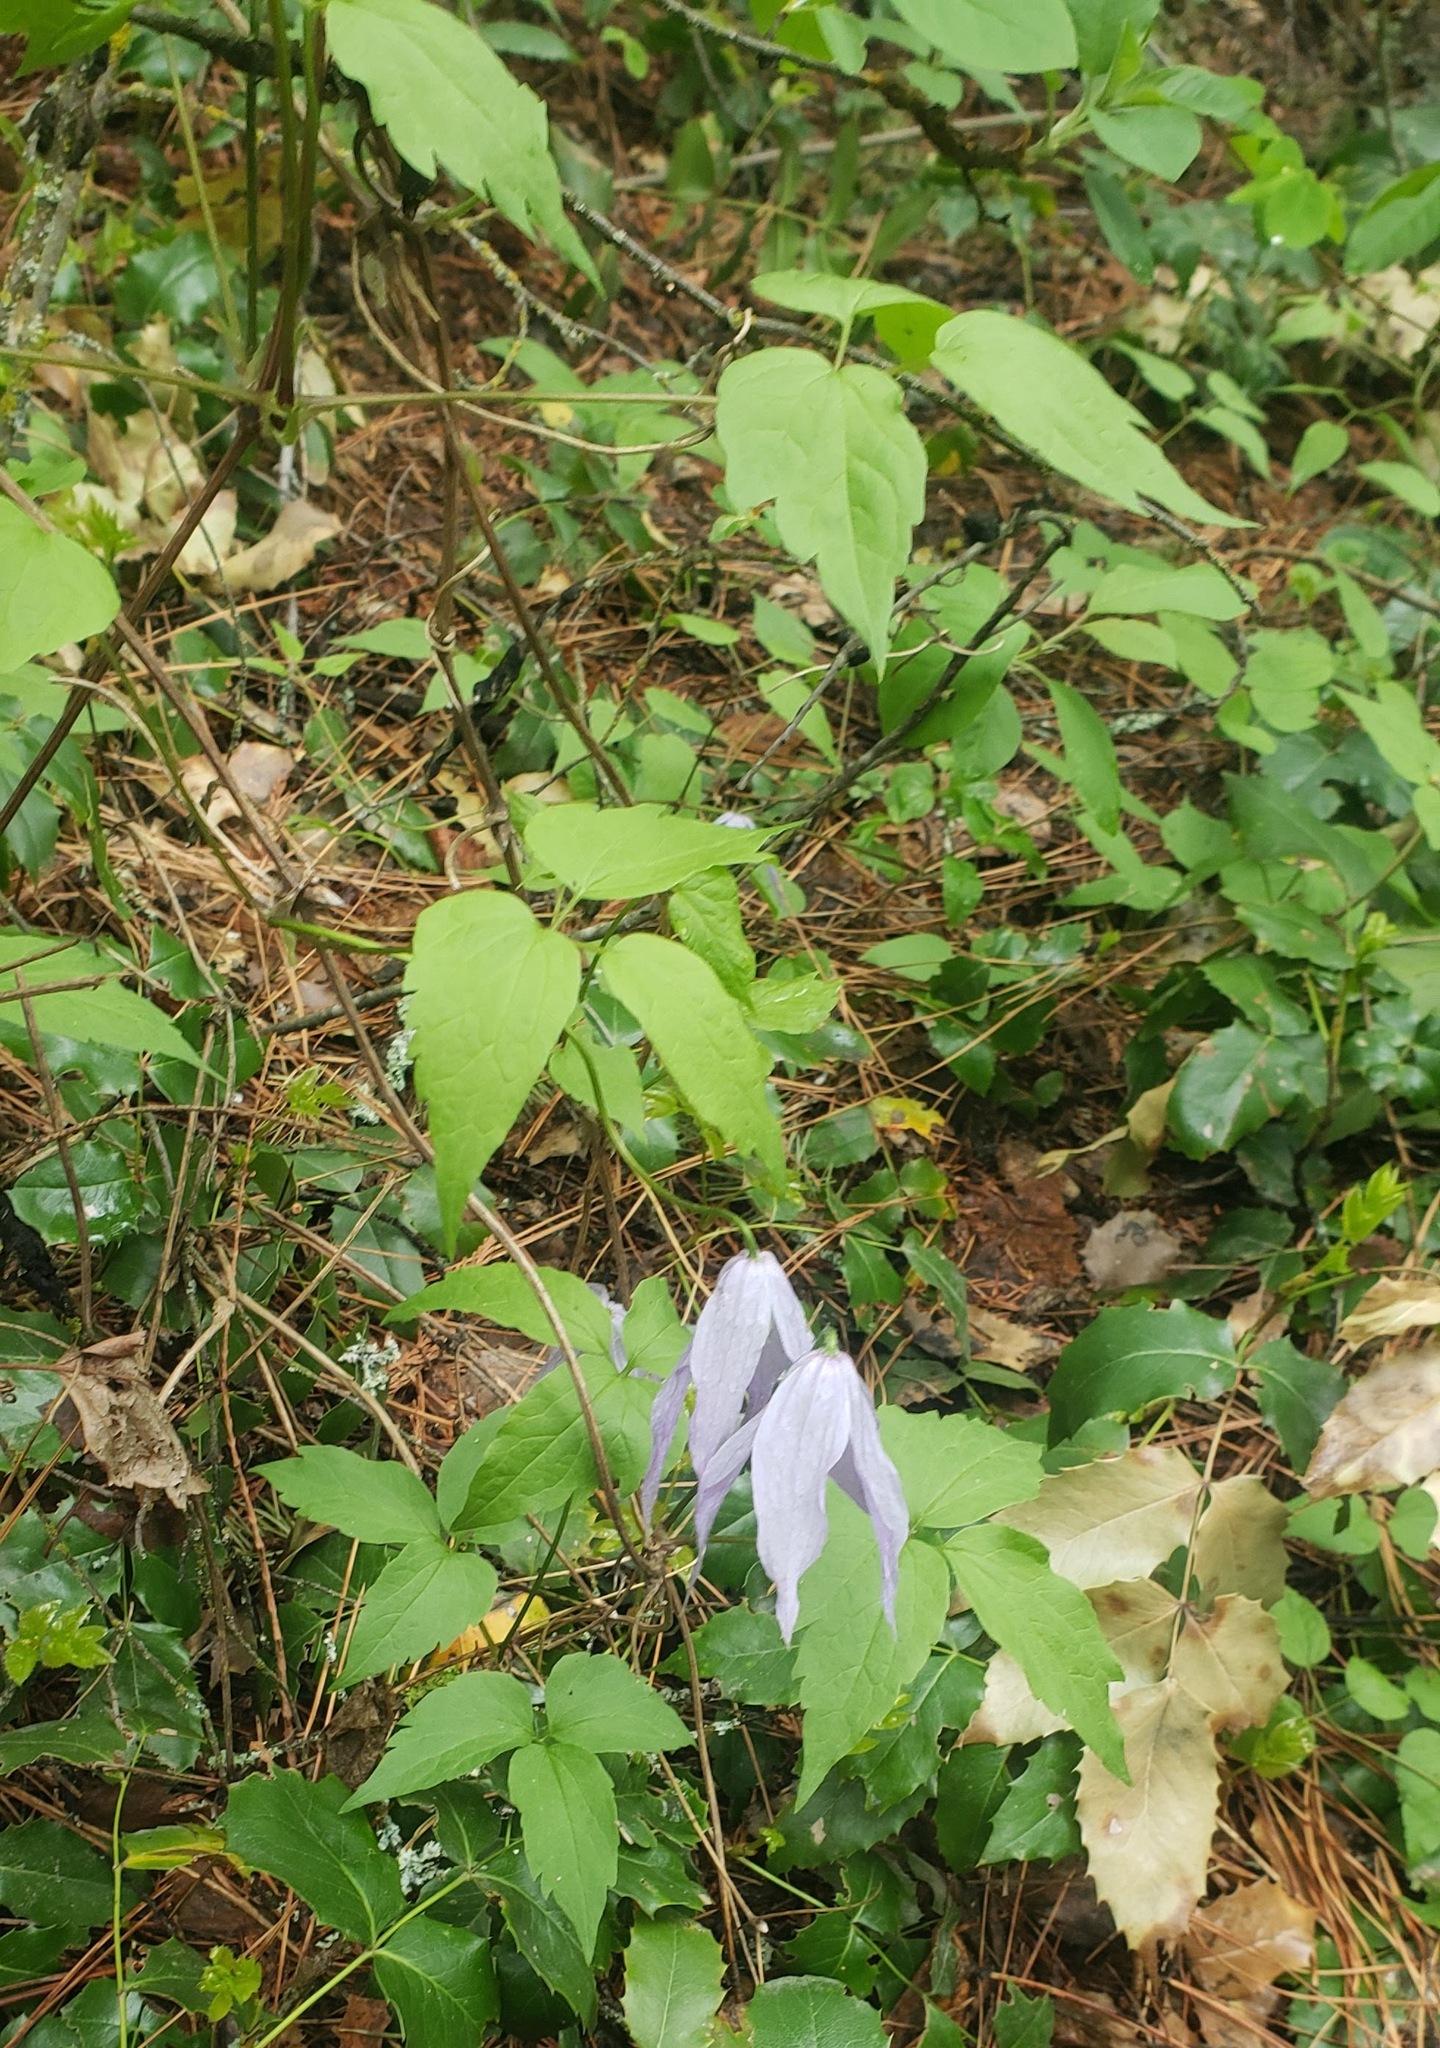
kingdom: Plantae
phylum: Tracheophyta
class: Magnoliopsida
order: Ranunculales
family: Ranunculaceae
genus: Clematis
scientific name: Clematis occidentalis
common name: Purple clematis
